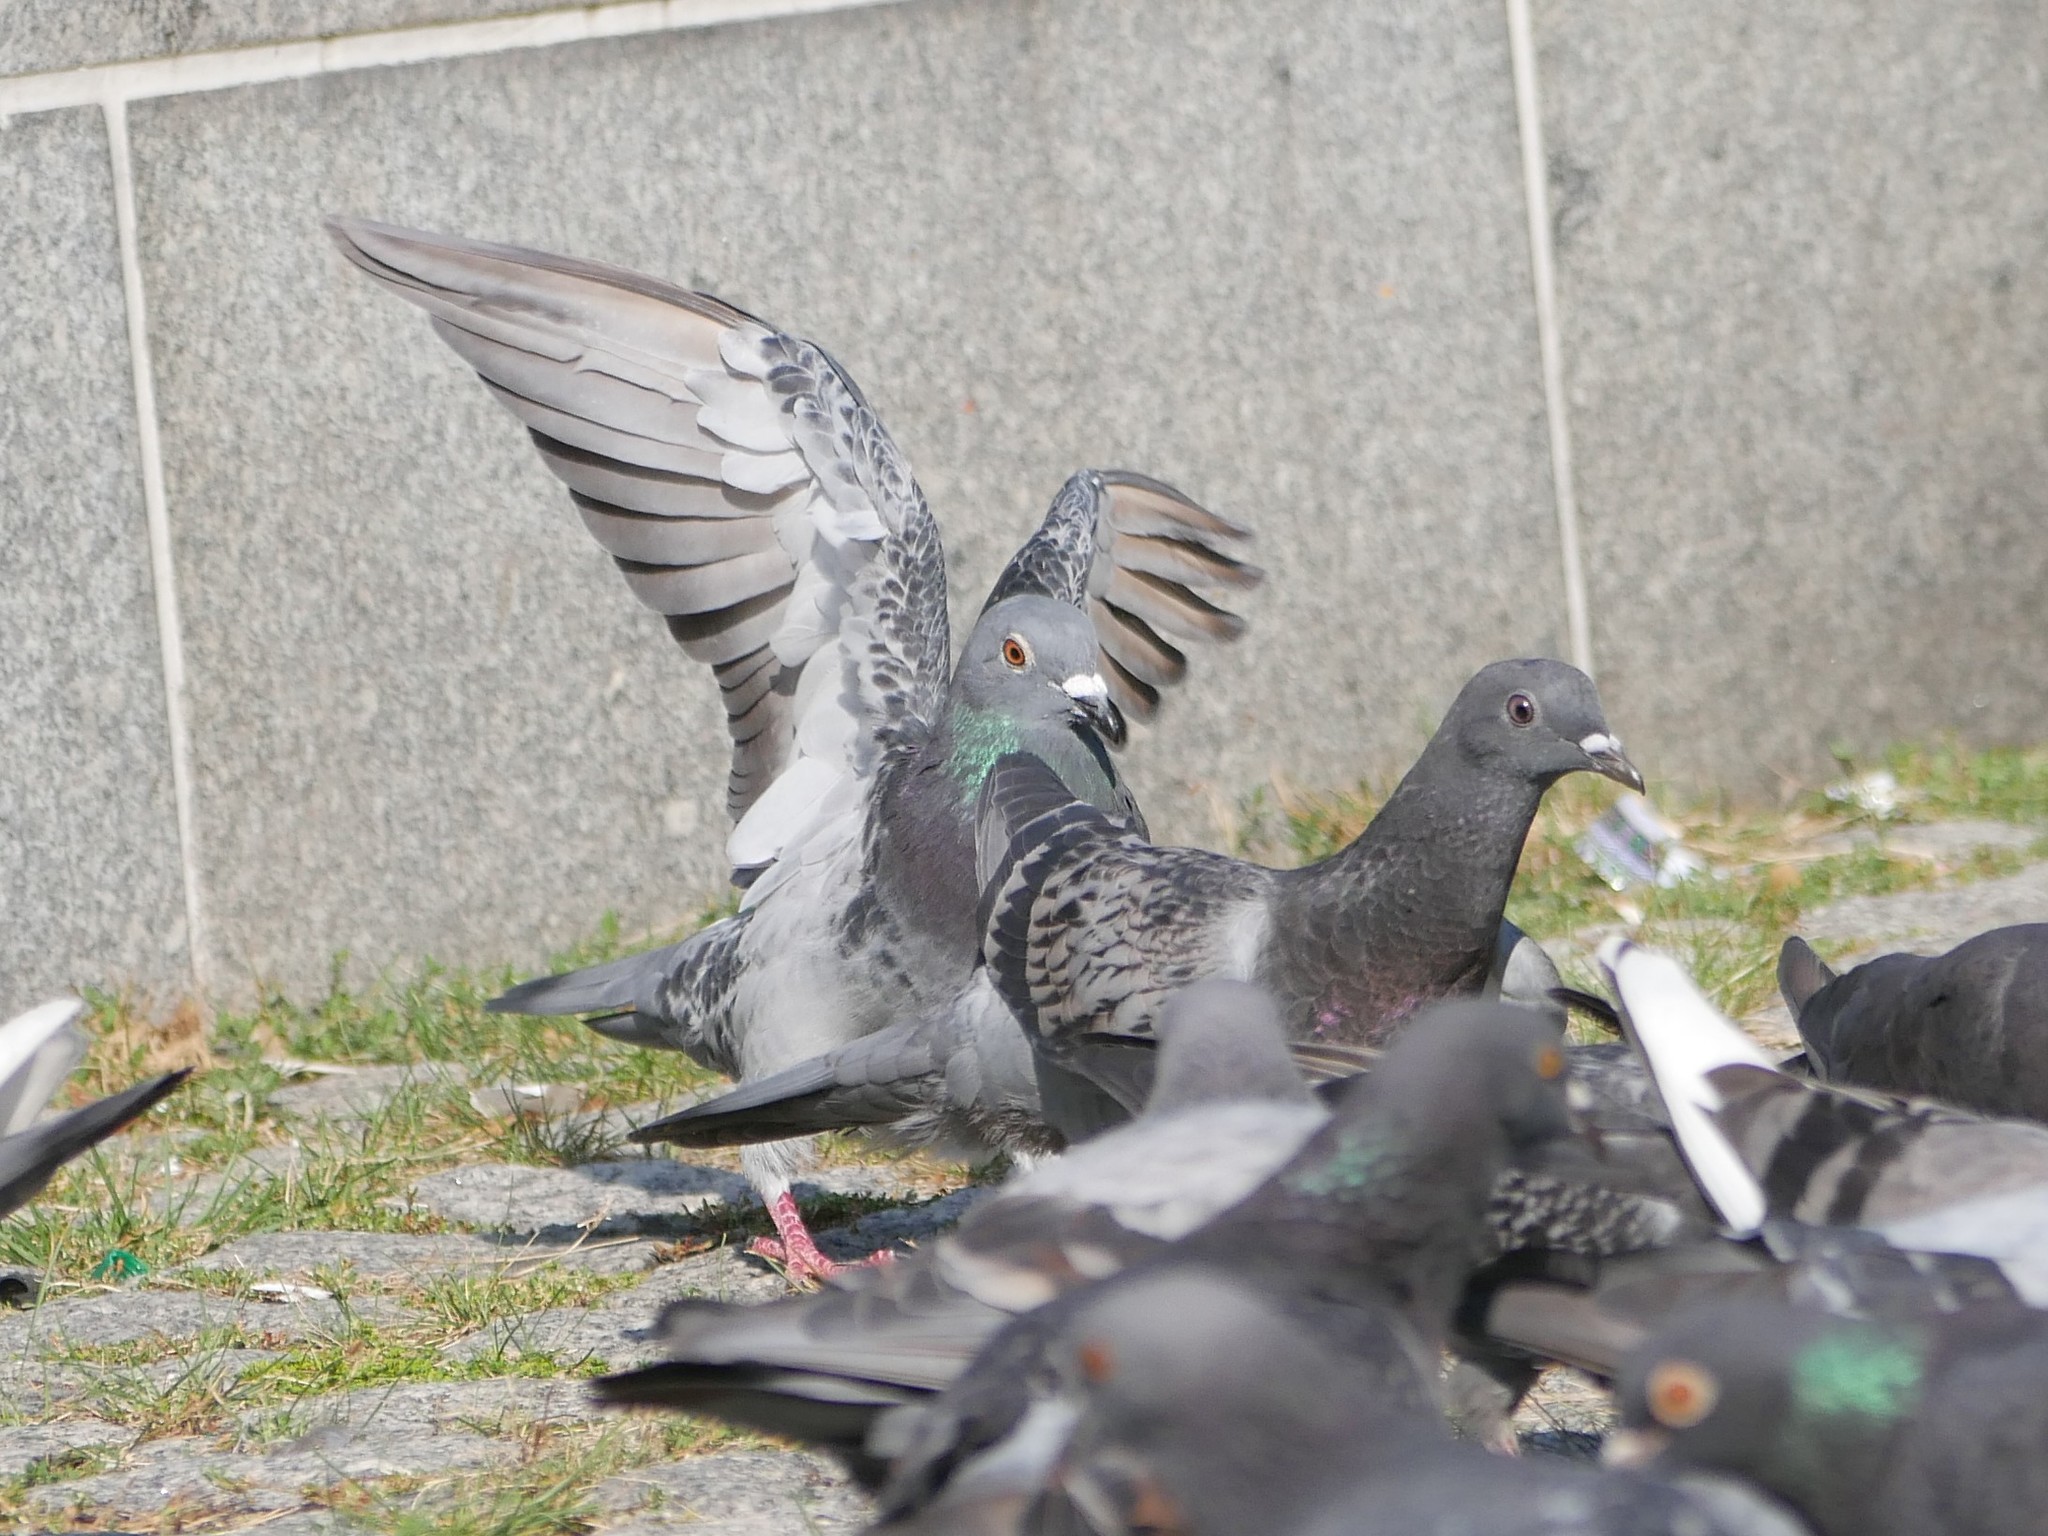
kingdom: Animalia
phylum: Chordata
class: Aves
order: Columbiformes
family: Columbidae
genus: Columba
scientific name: Columba livia
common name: Rock pigeon
